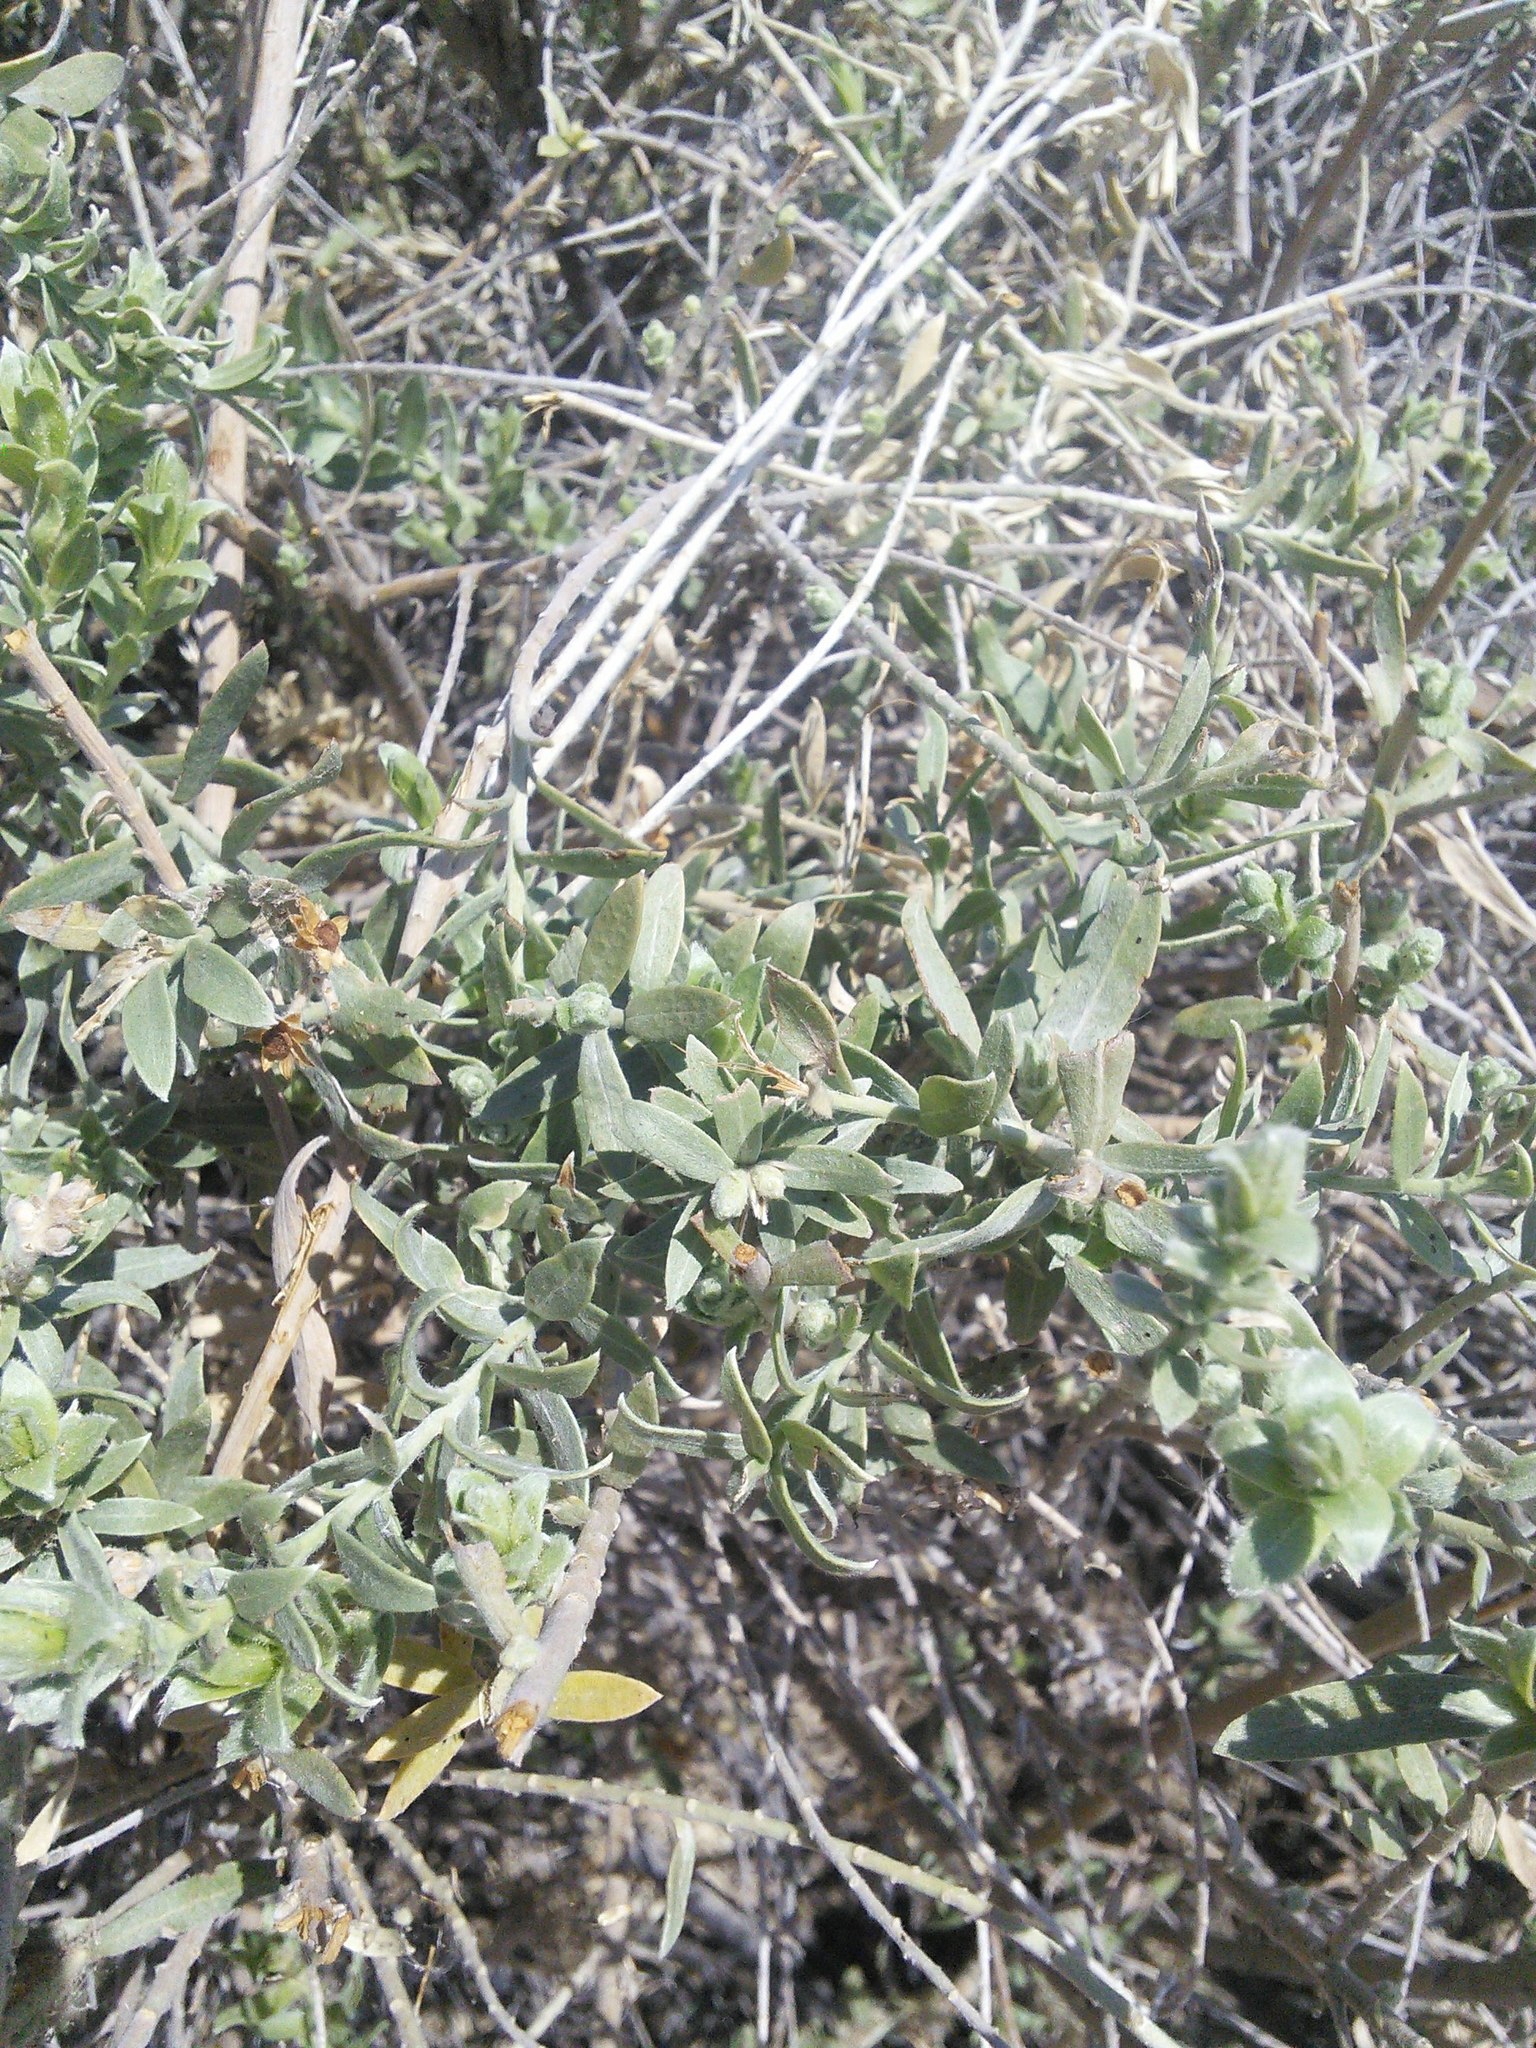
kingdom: Plantae
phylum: Tracheophyta
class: Magnoliopsida
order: Asterales
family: Asteraceae
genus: Pluchea
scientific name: Pluchea sericea
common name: Arrow-weed
